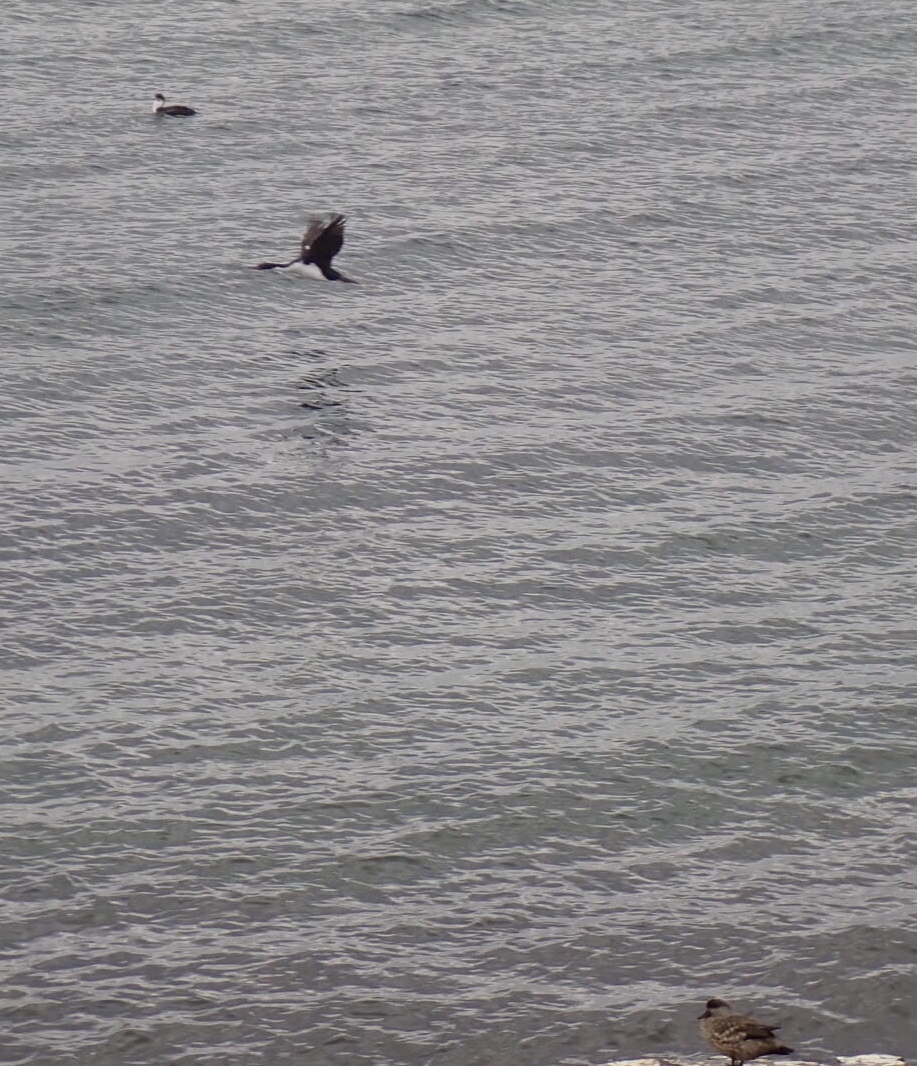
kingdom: Animalia
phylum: Chordata
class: Aves
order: Suliformes
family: Phalacrocoracidae
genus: Leucocarbo
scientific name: Leucocarbo atriceps
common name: Imperial shag
